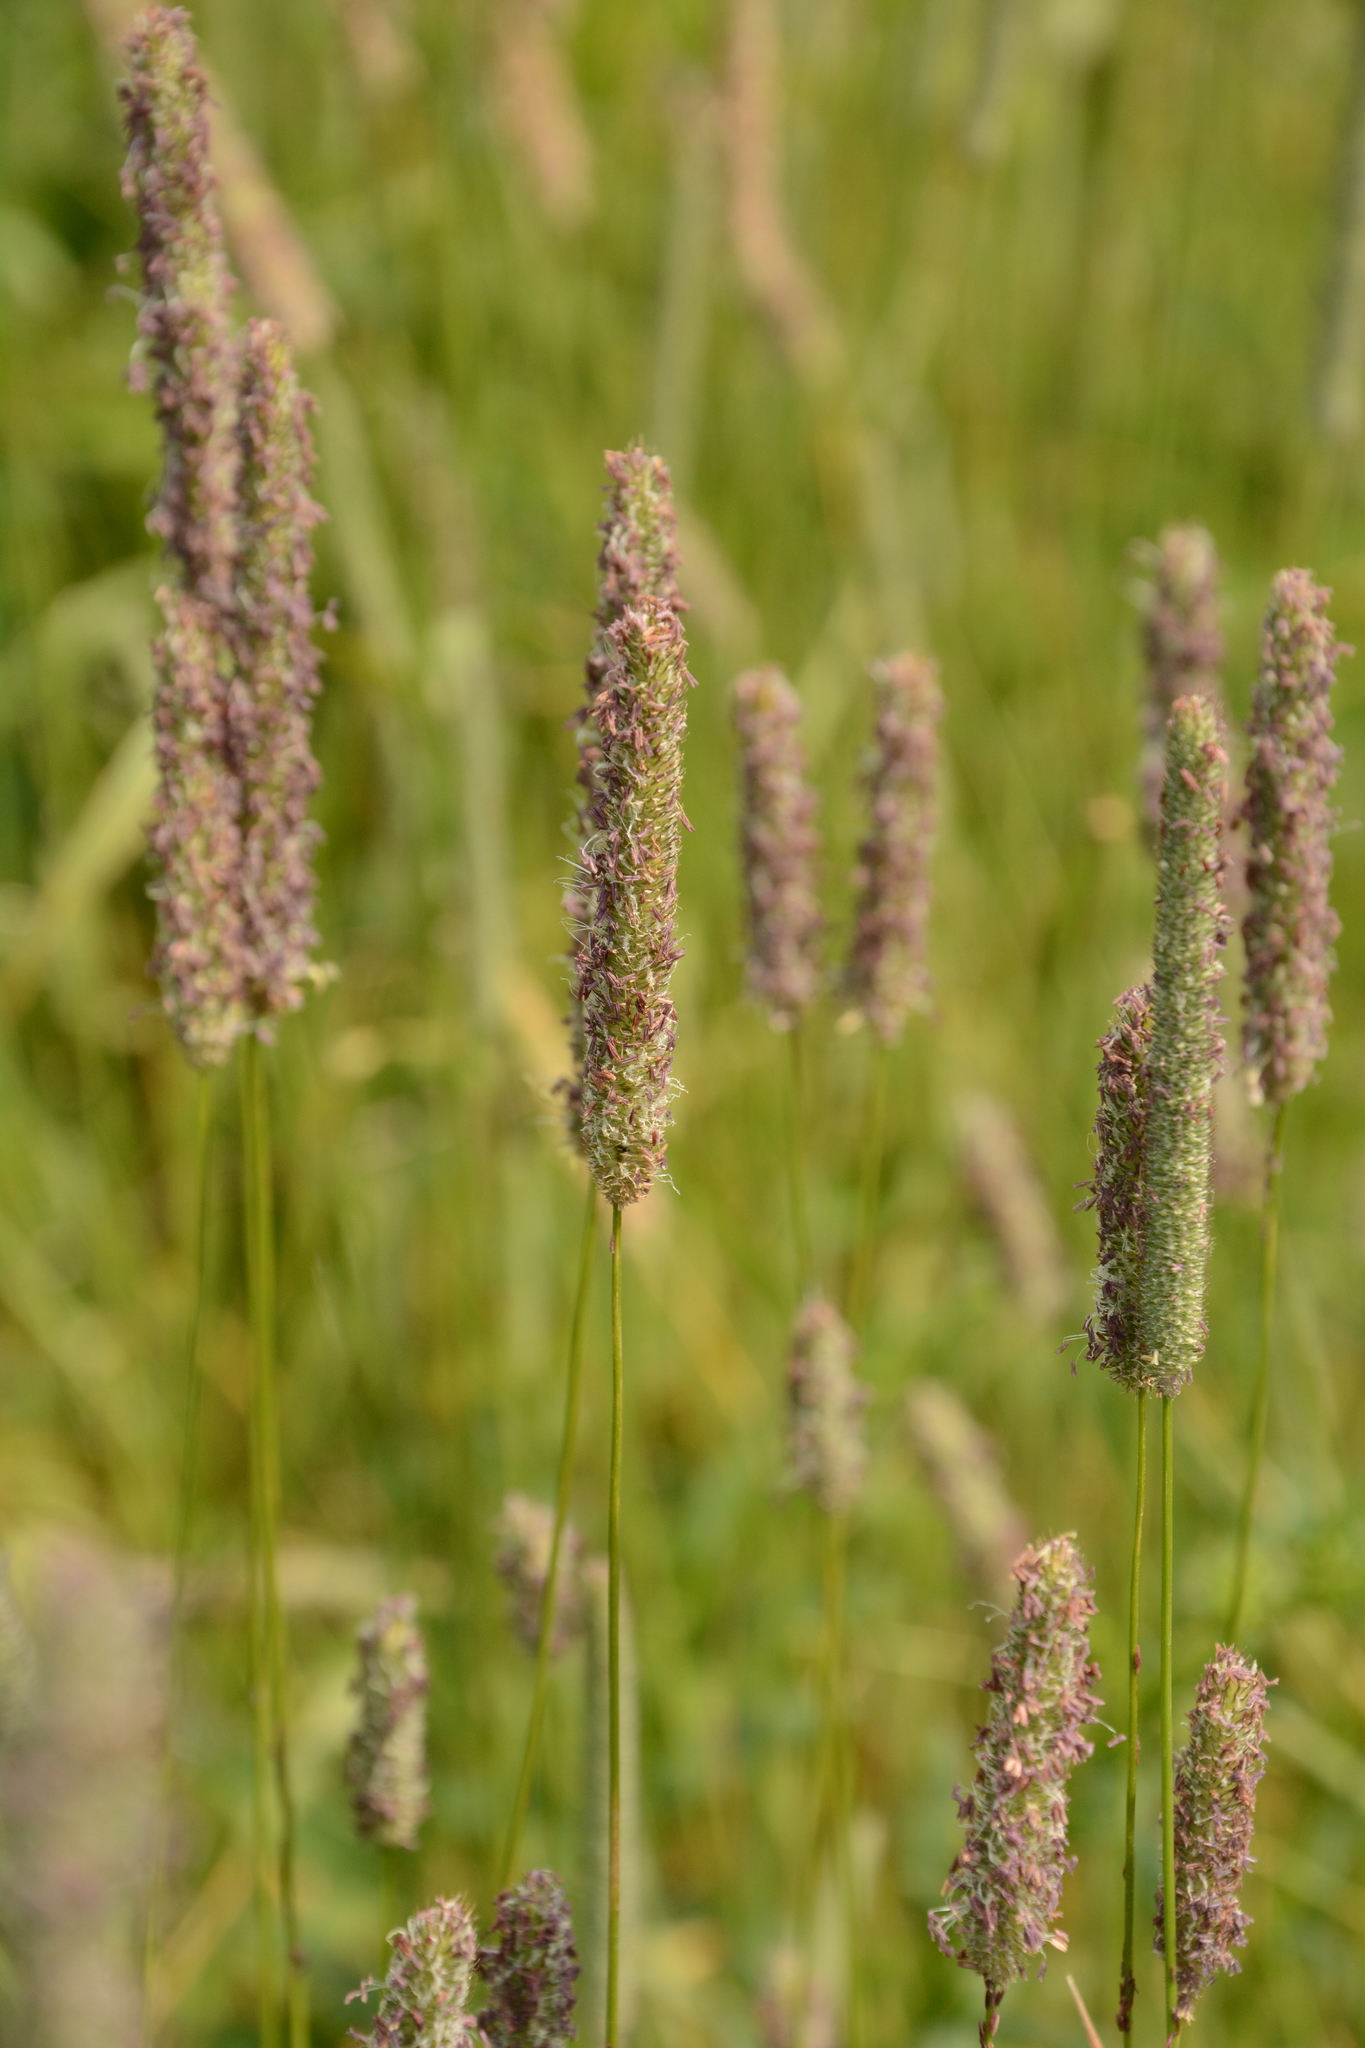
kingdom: Plantae
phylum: Tracheophyta
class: Liliopsida
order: Poales
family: Poaceae
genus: Phleum
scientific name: Phleum pratense
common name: Timothy grass
